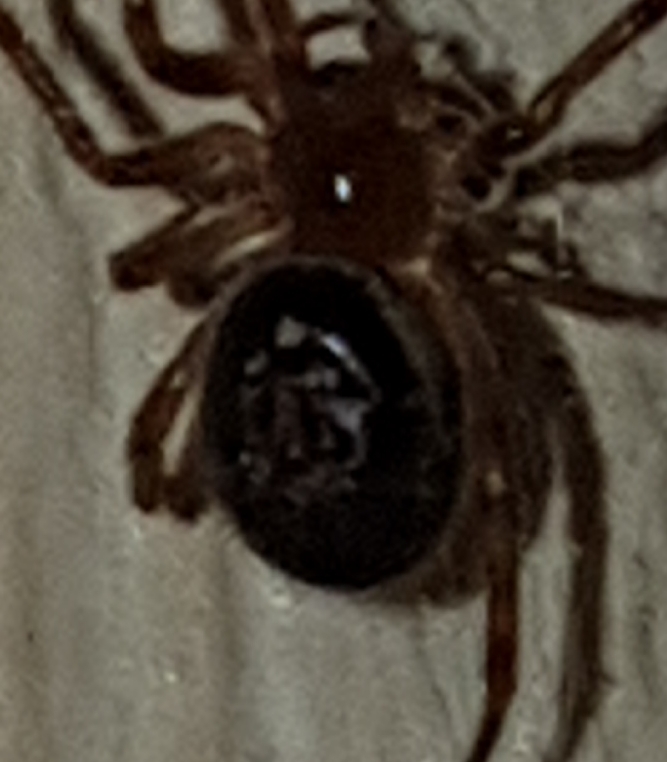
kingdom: Animalia
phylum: Arthropoda
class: Arachnida
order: Araneae
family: Theridiidae
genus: Steatoda
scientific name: Steatoda nobilis
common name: Cobweb weaver
